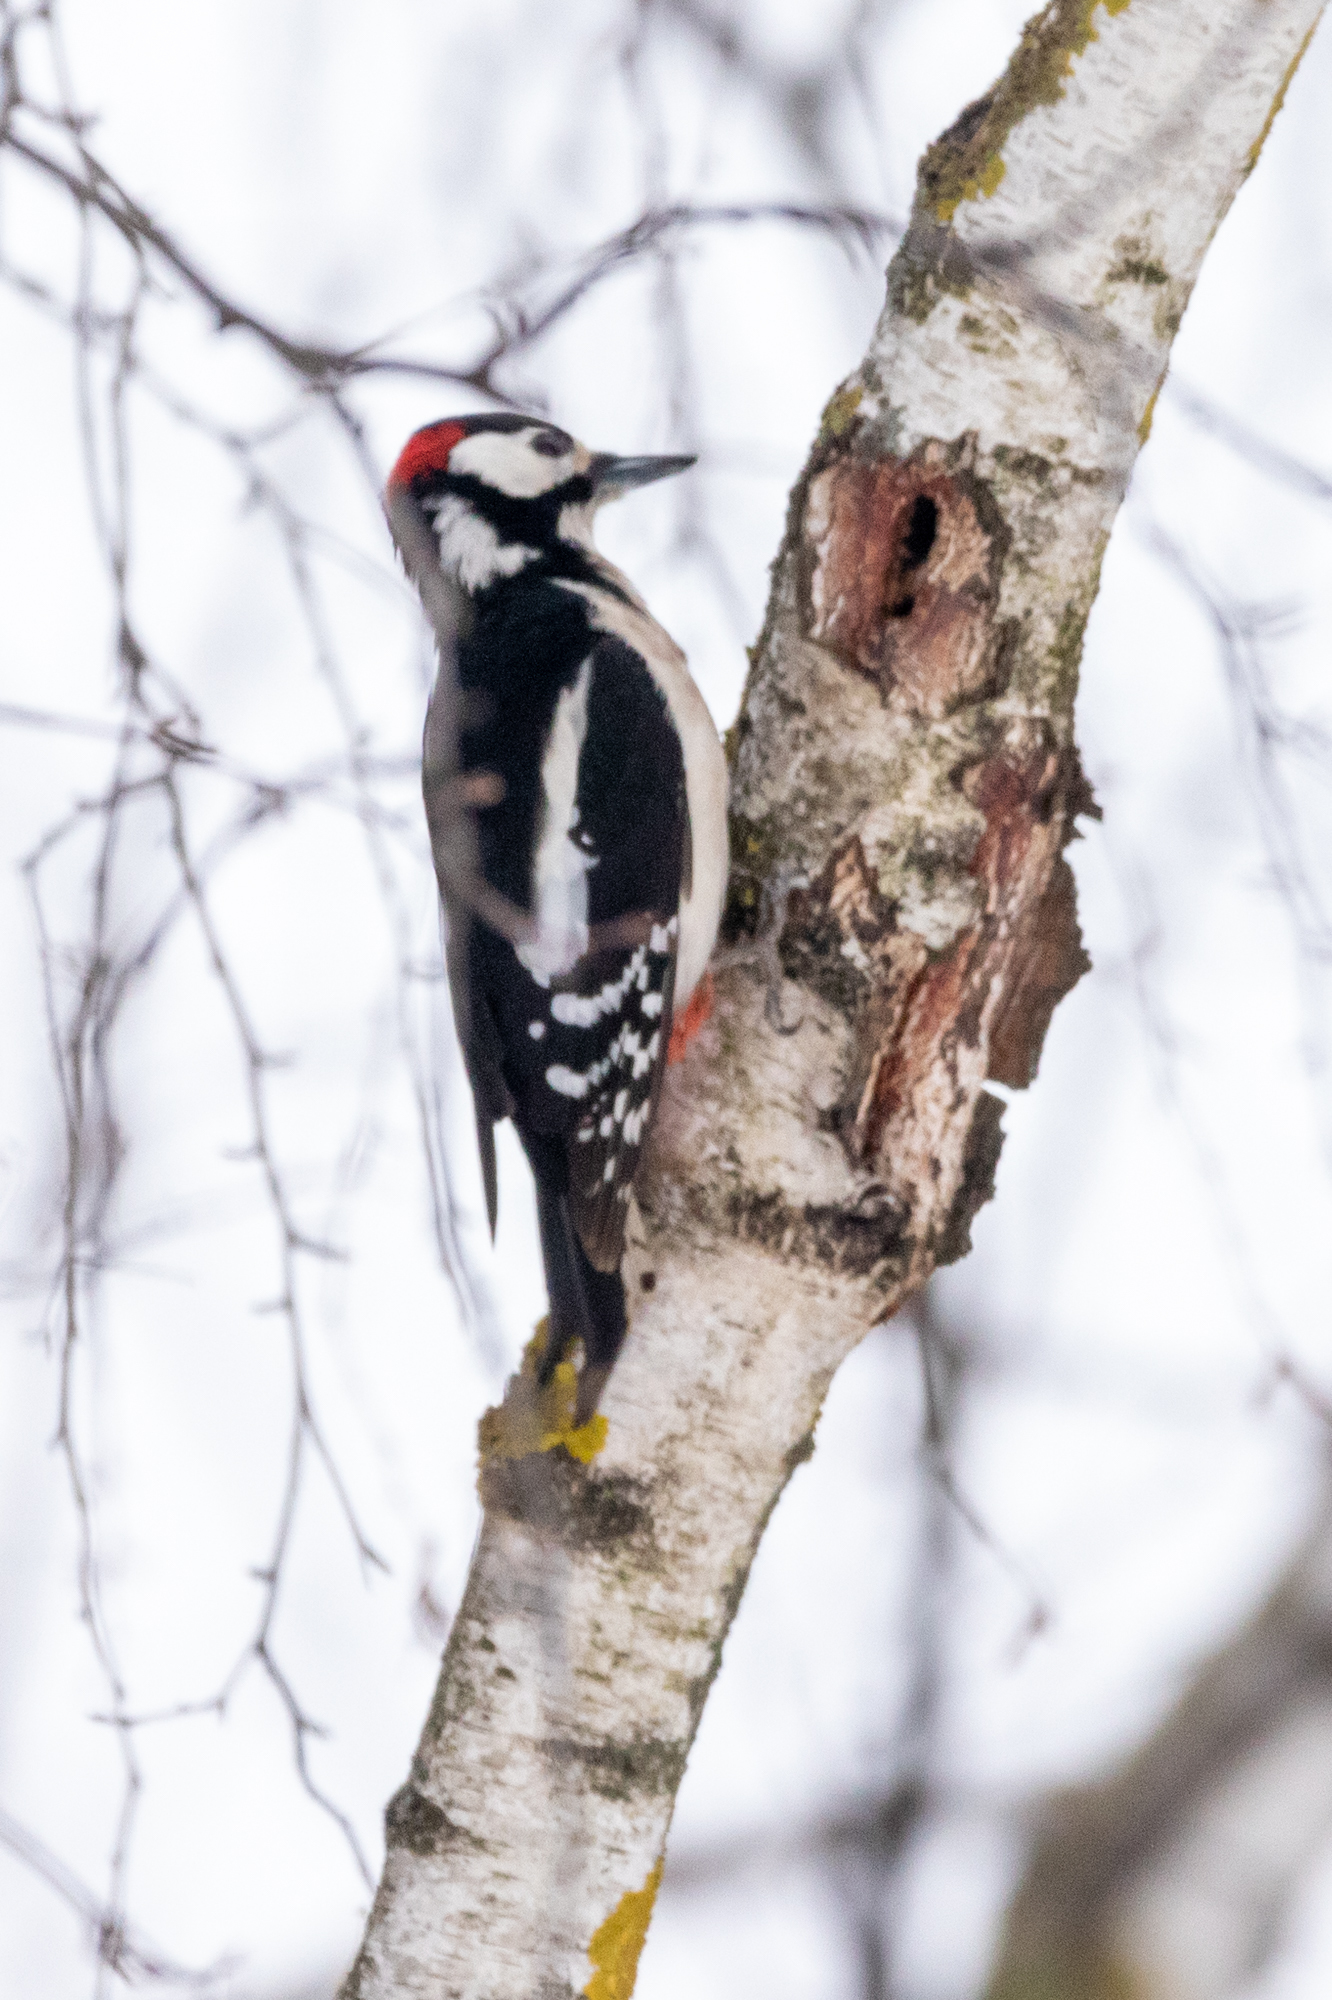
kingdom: Animalia
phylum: Chordata
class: Aves
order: Piciformes
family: Picidae
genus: Dendrocopos
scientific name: Dendrocopos major
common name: Great spotted woodpecker
